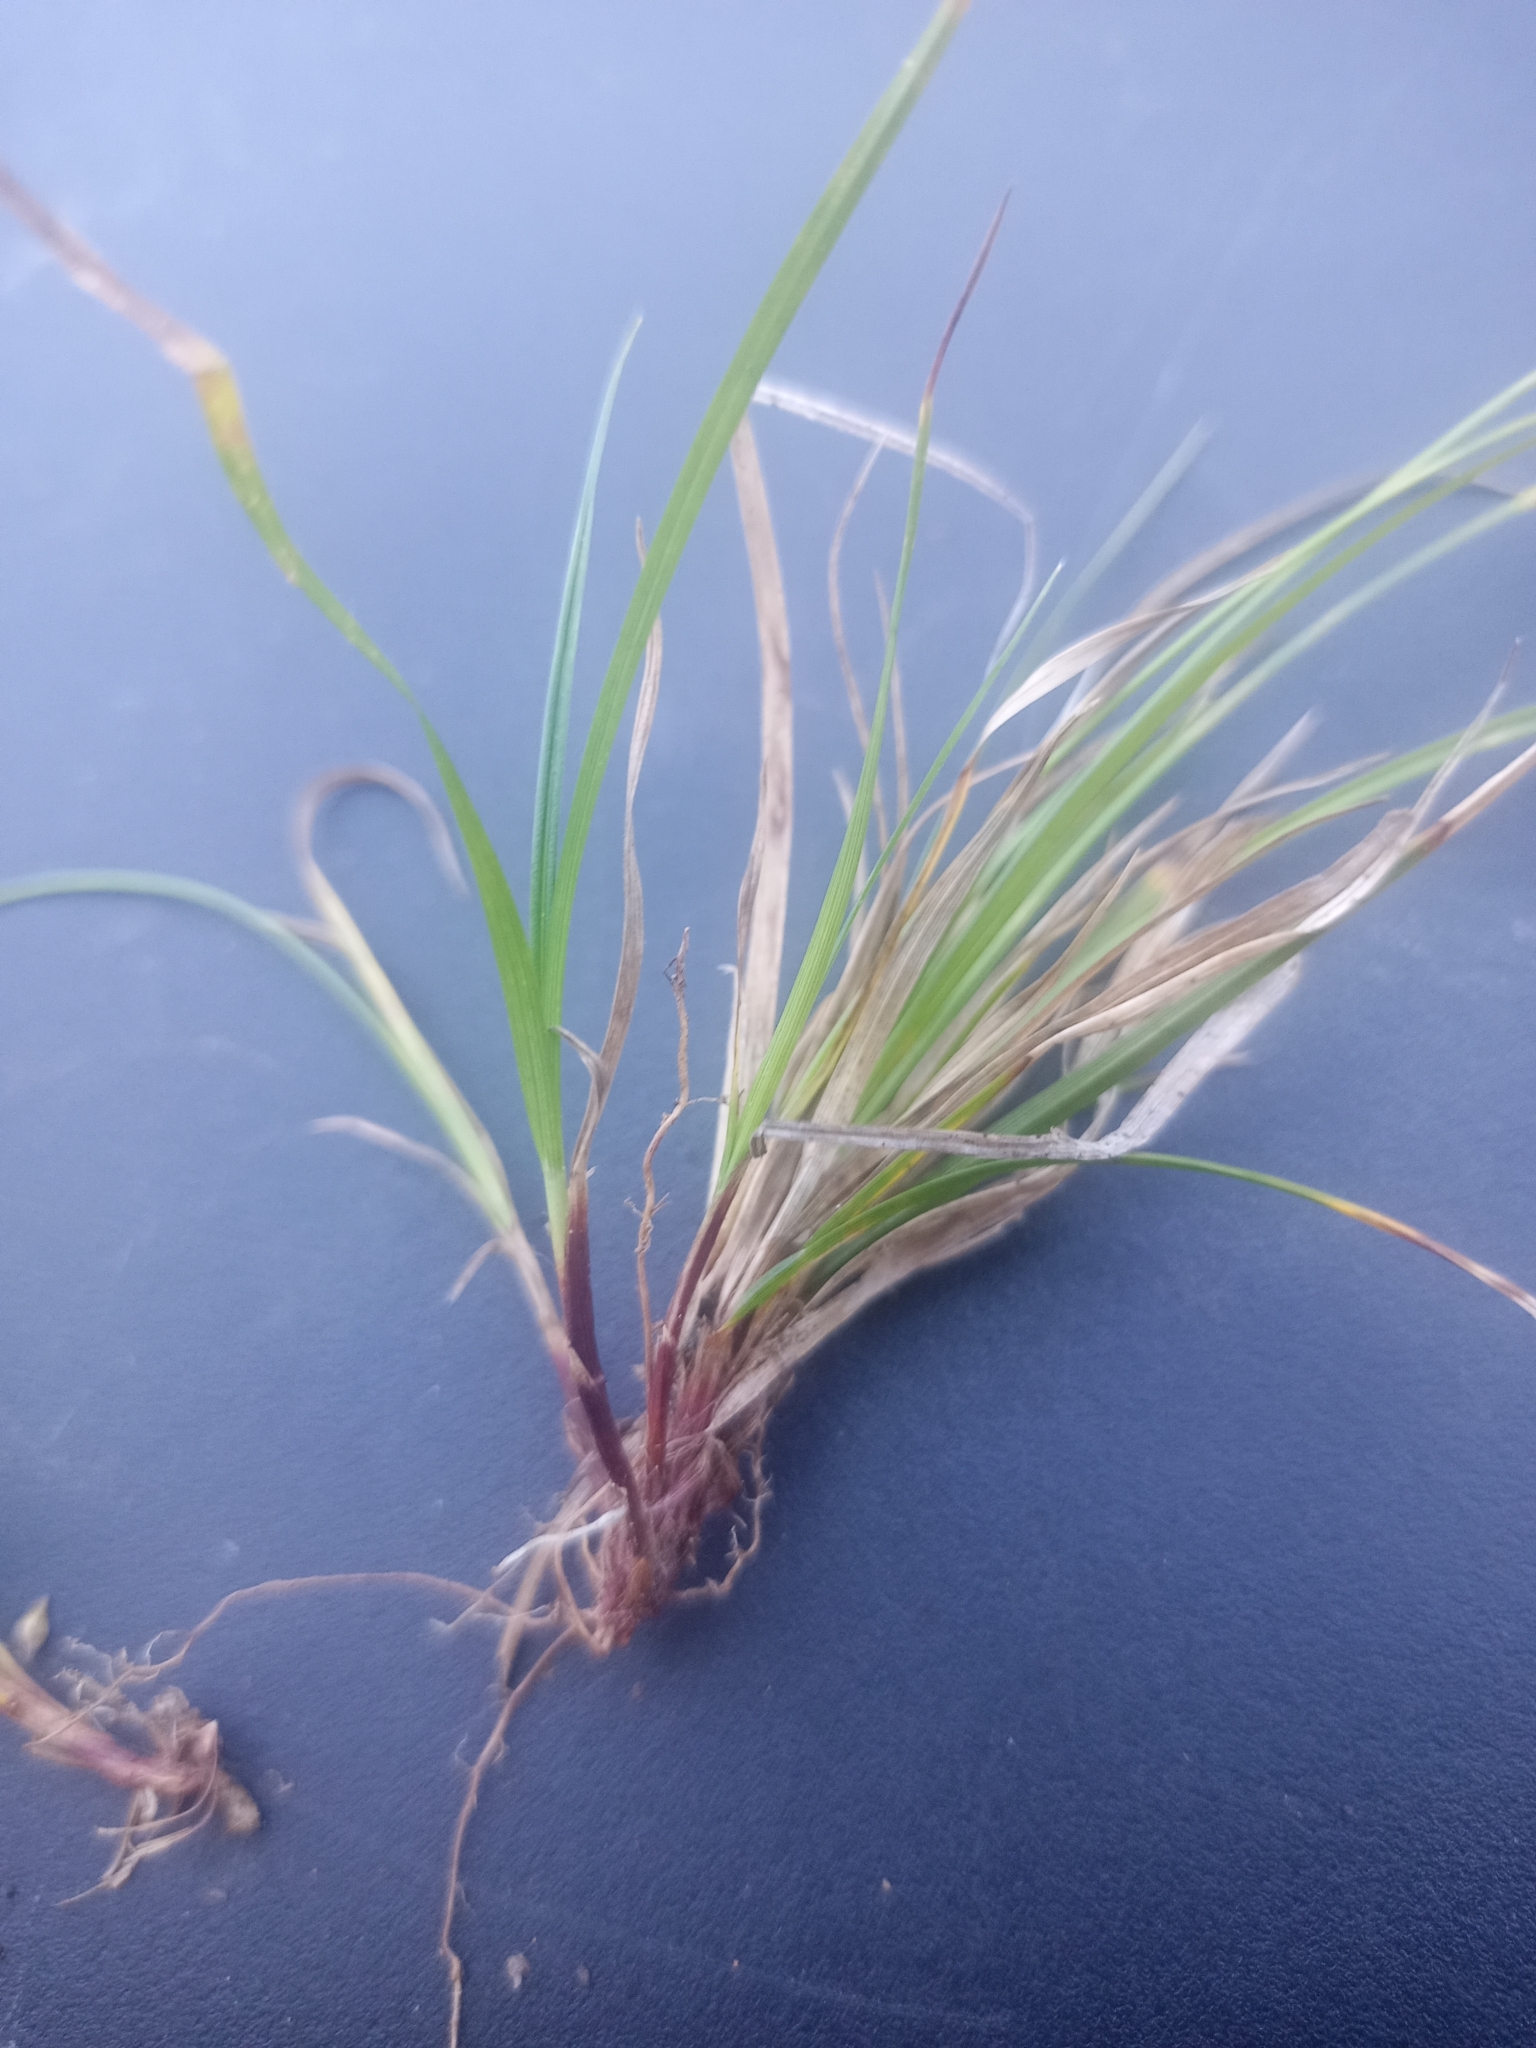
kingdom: Plantae
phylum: Tracheophyta
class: Liliopsida
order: Poales
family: Cyperaceae
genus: Carex
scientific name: Carex deflexa
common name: Bent northern sedge
